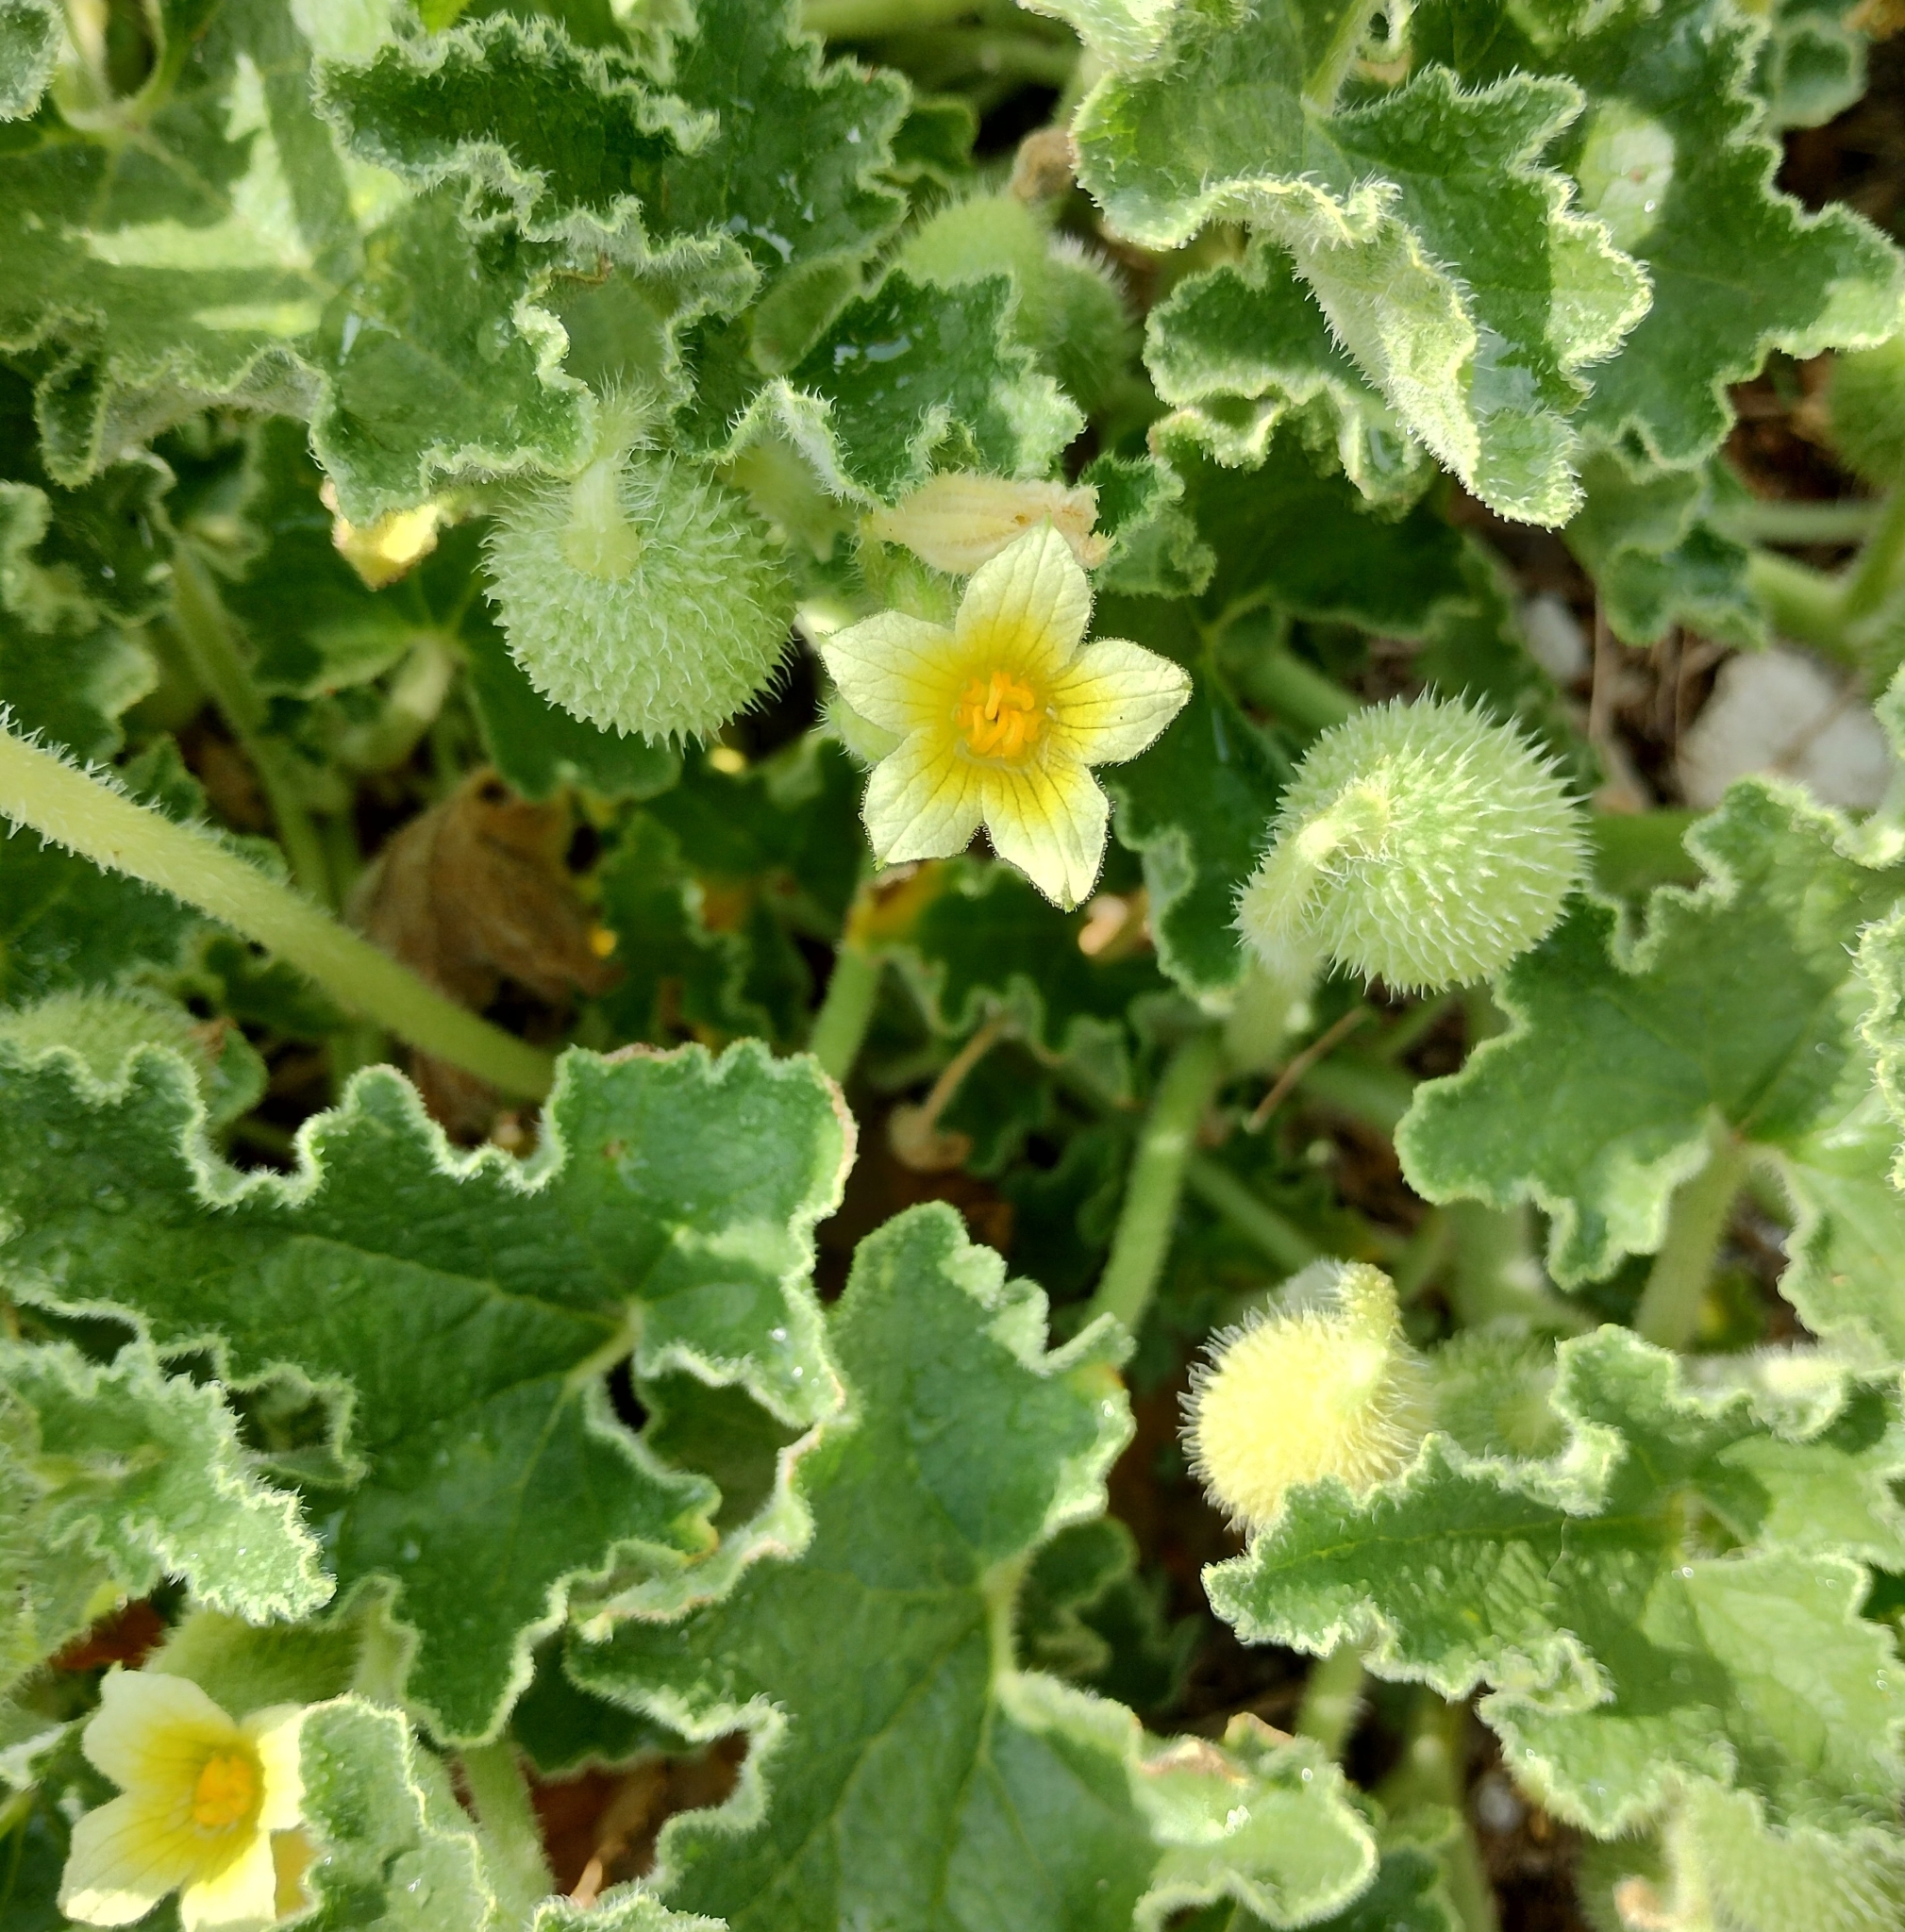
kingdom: Plantae
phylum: Tracheophyta
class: Magnoliopsida
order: Cucurbitales
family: Cucurbitaceae
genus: Ecballium
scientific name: Ecballium elaterium
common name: Squirting cucumber
